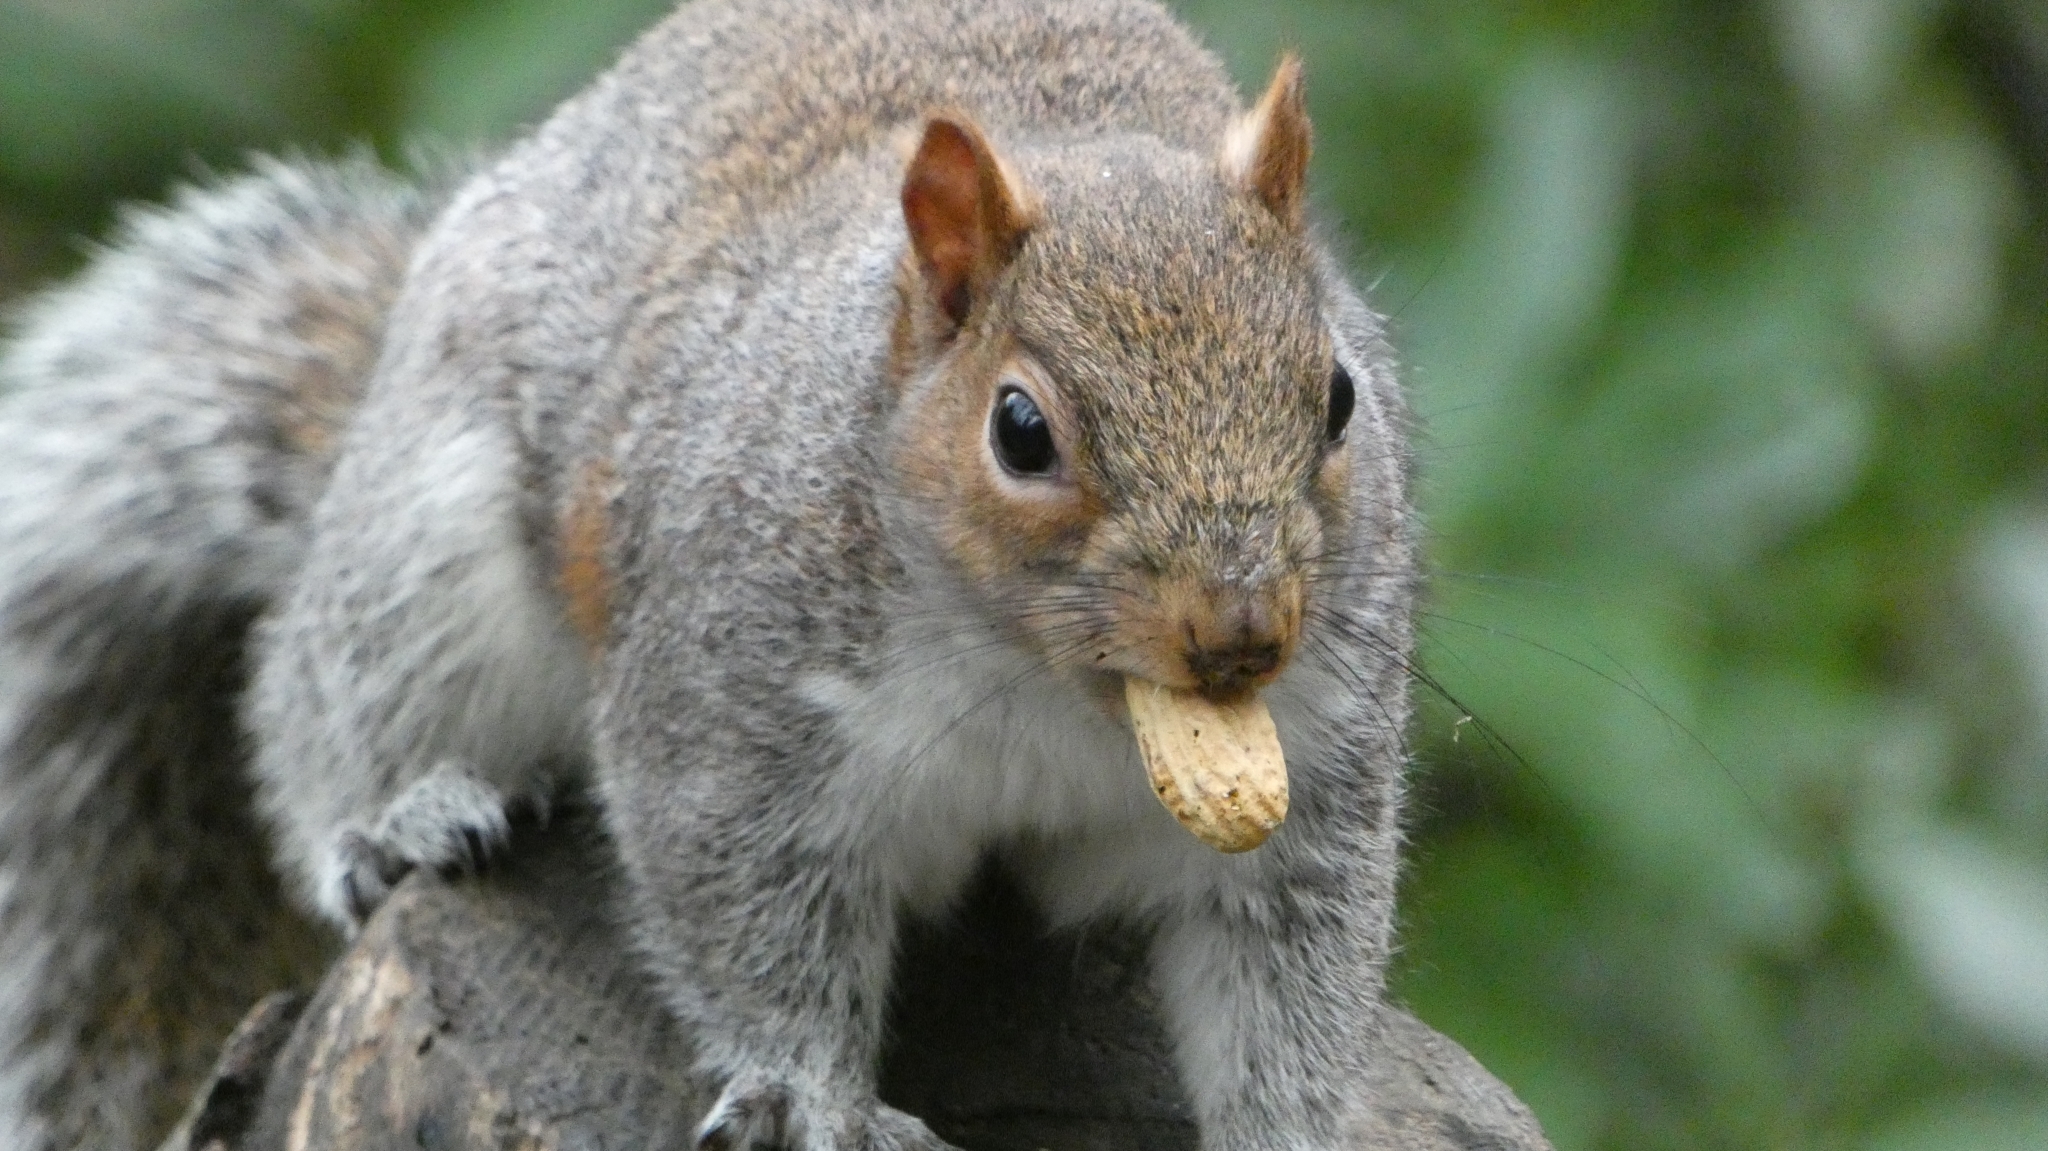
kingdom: Animalia
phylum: Chordata
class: Mammalia
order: Rodentia
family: Sciuridae
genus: Sciurus
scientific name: Sciurus carolinensis
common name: Eastern gray squirrel
